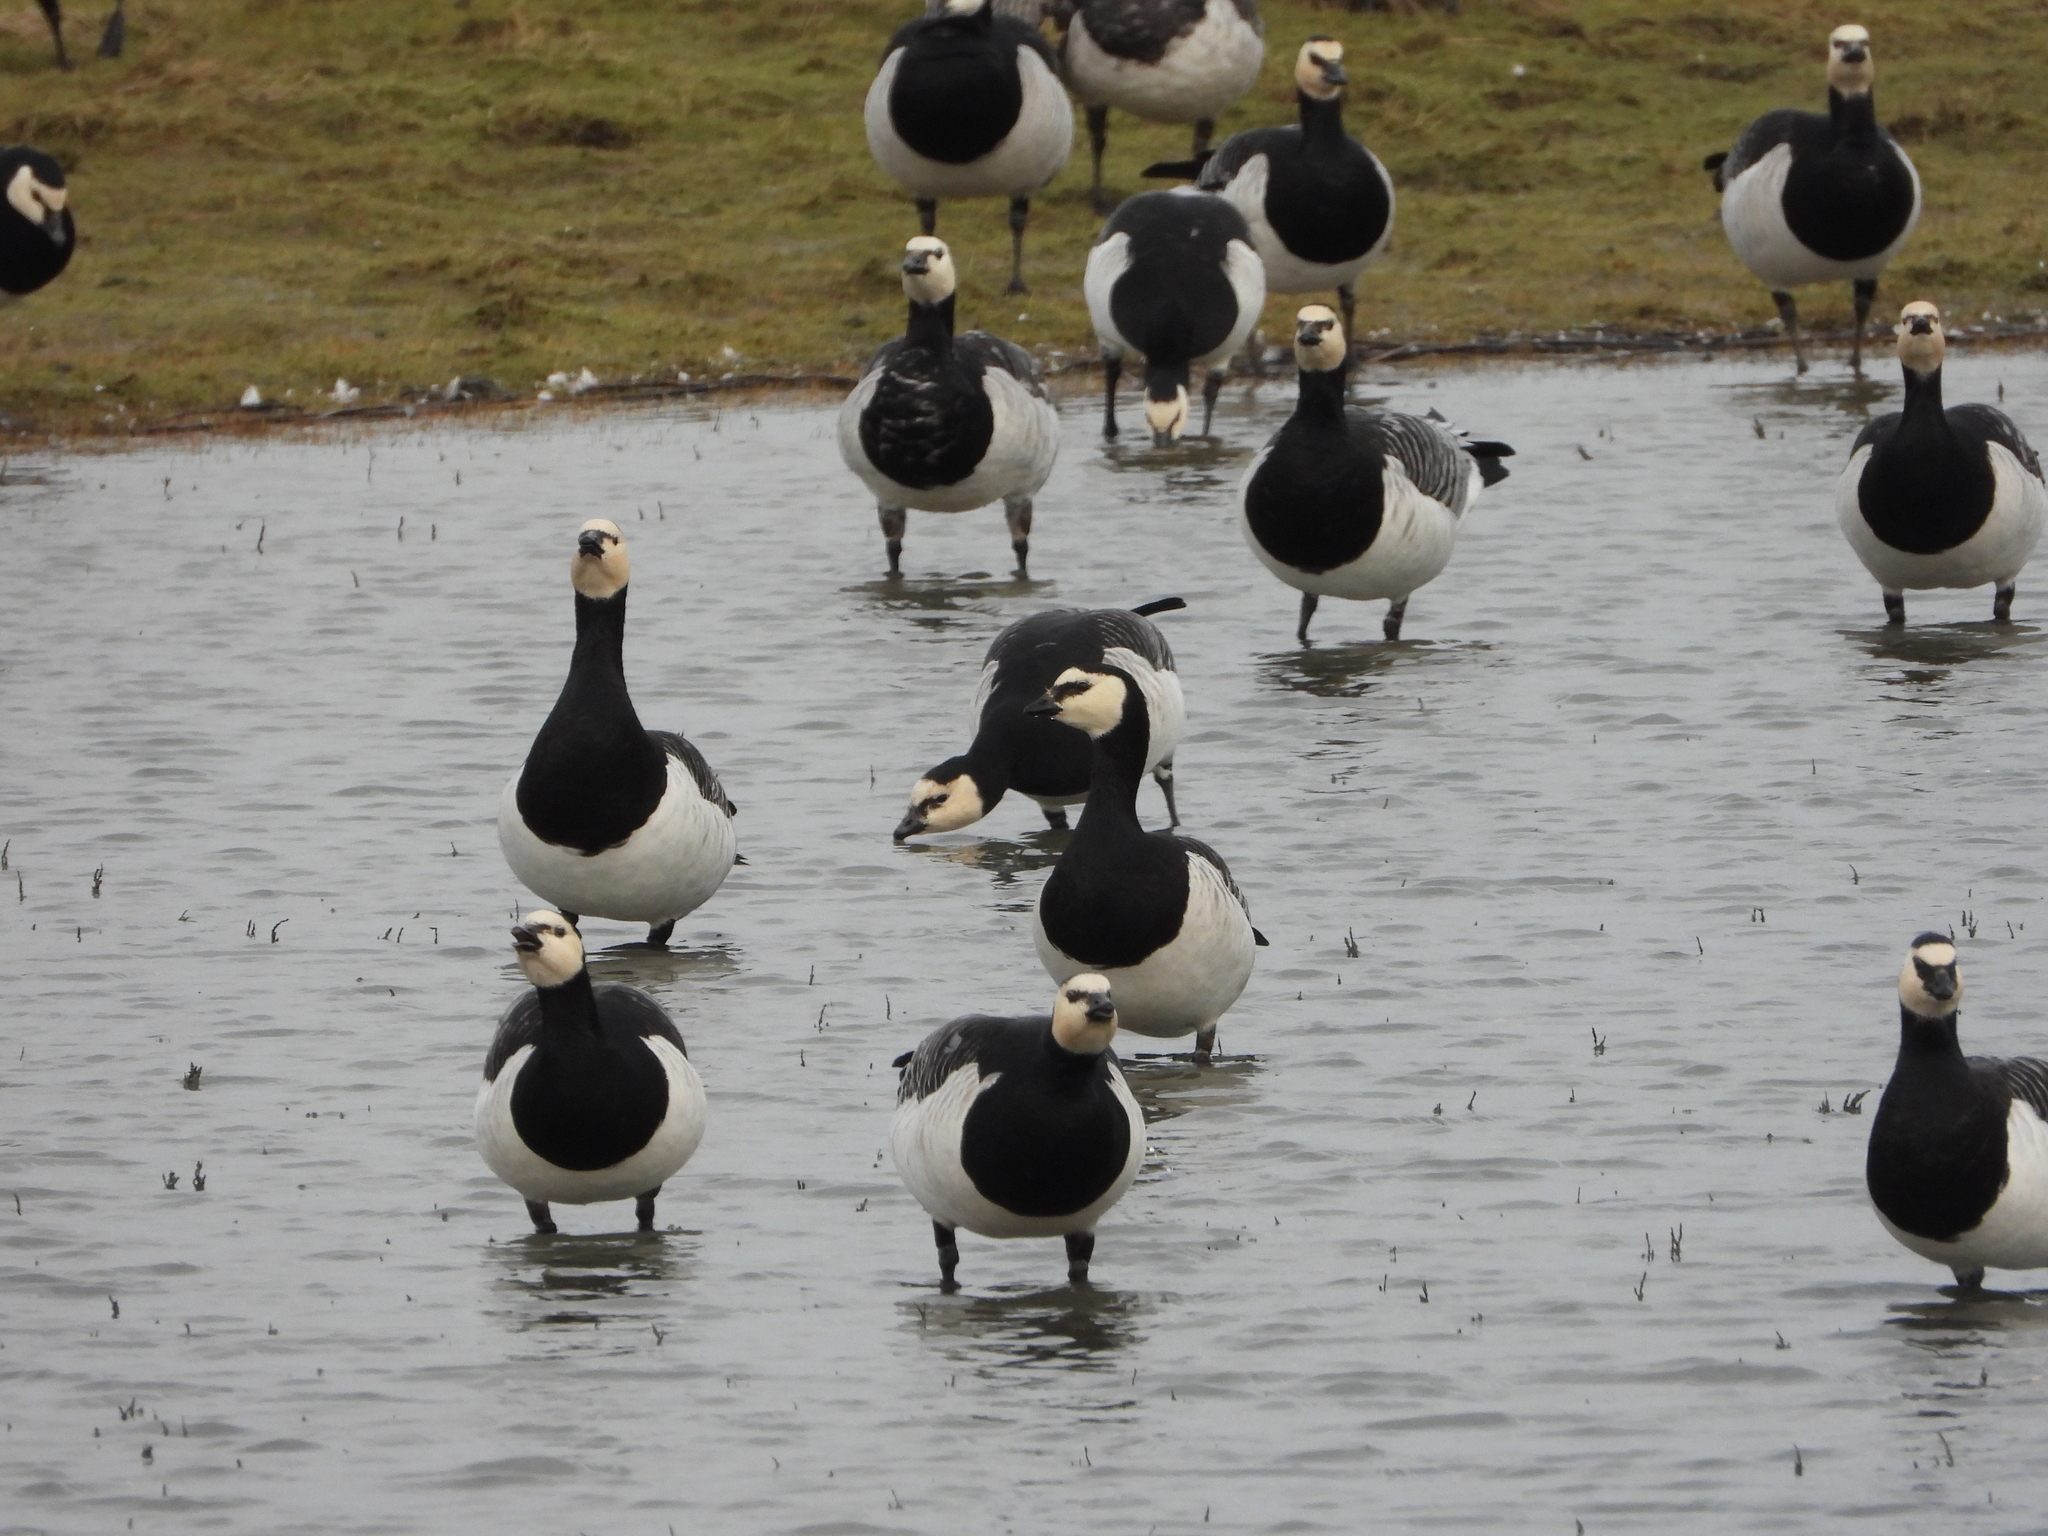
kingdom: Animalia
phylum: Chordata
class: Aves
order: Anseriformes
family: Anatidae
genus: Branta
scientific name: Branta leucopsis
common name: Barnacle goose
